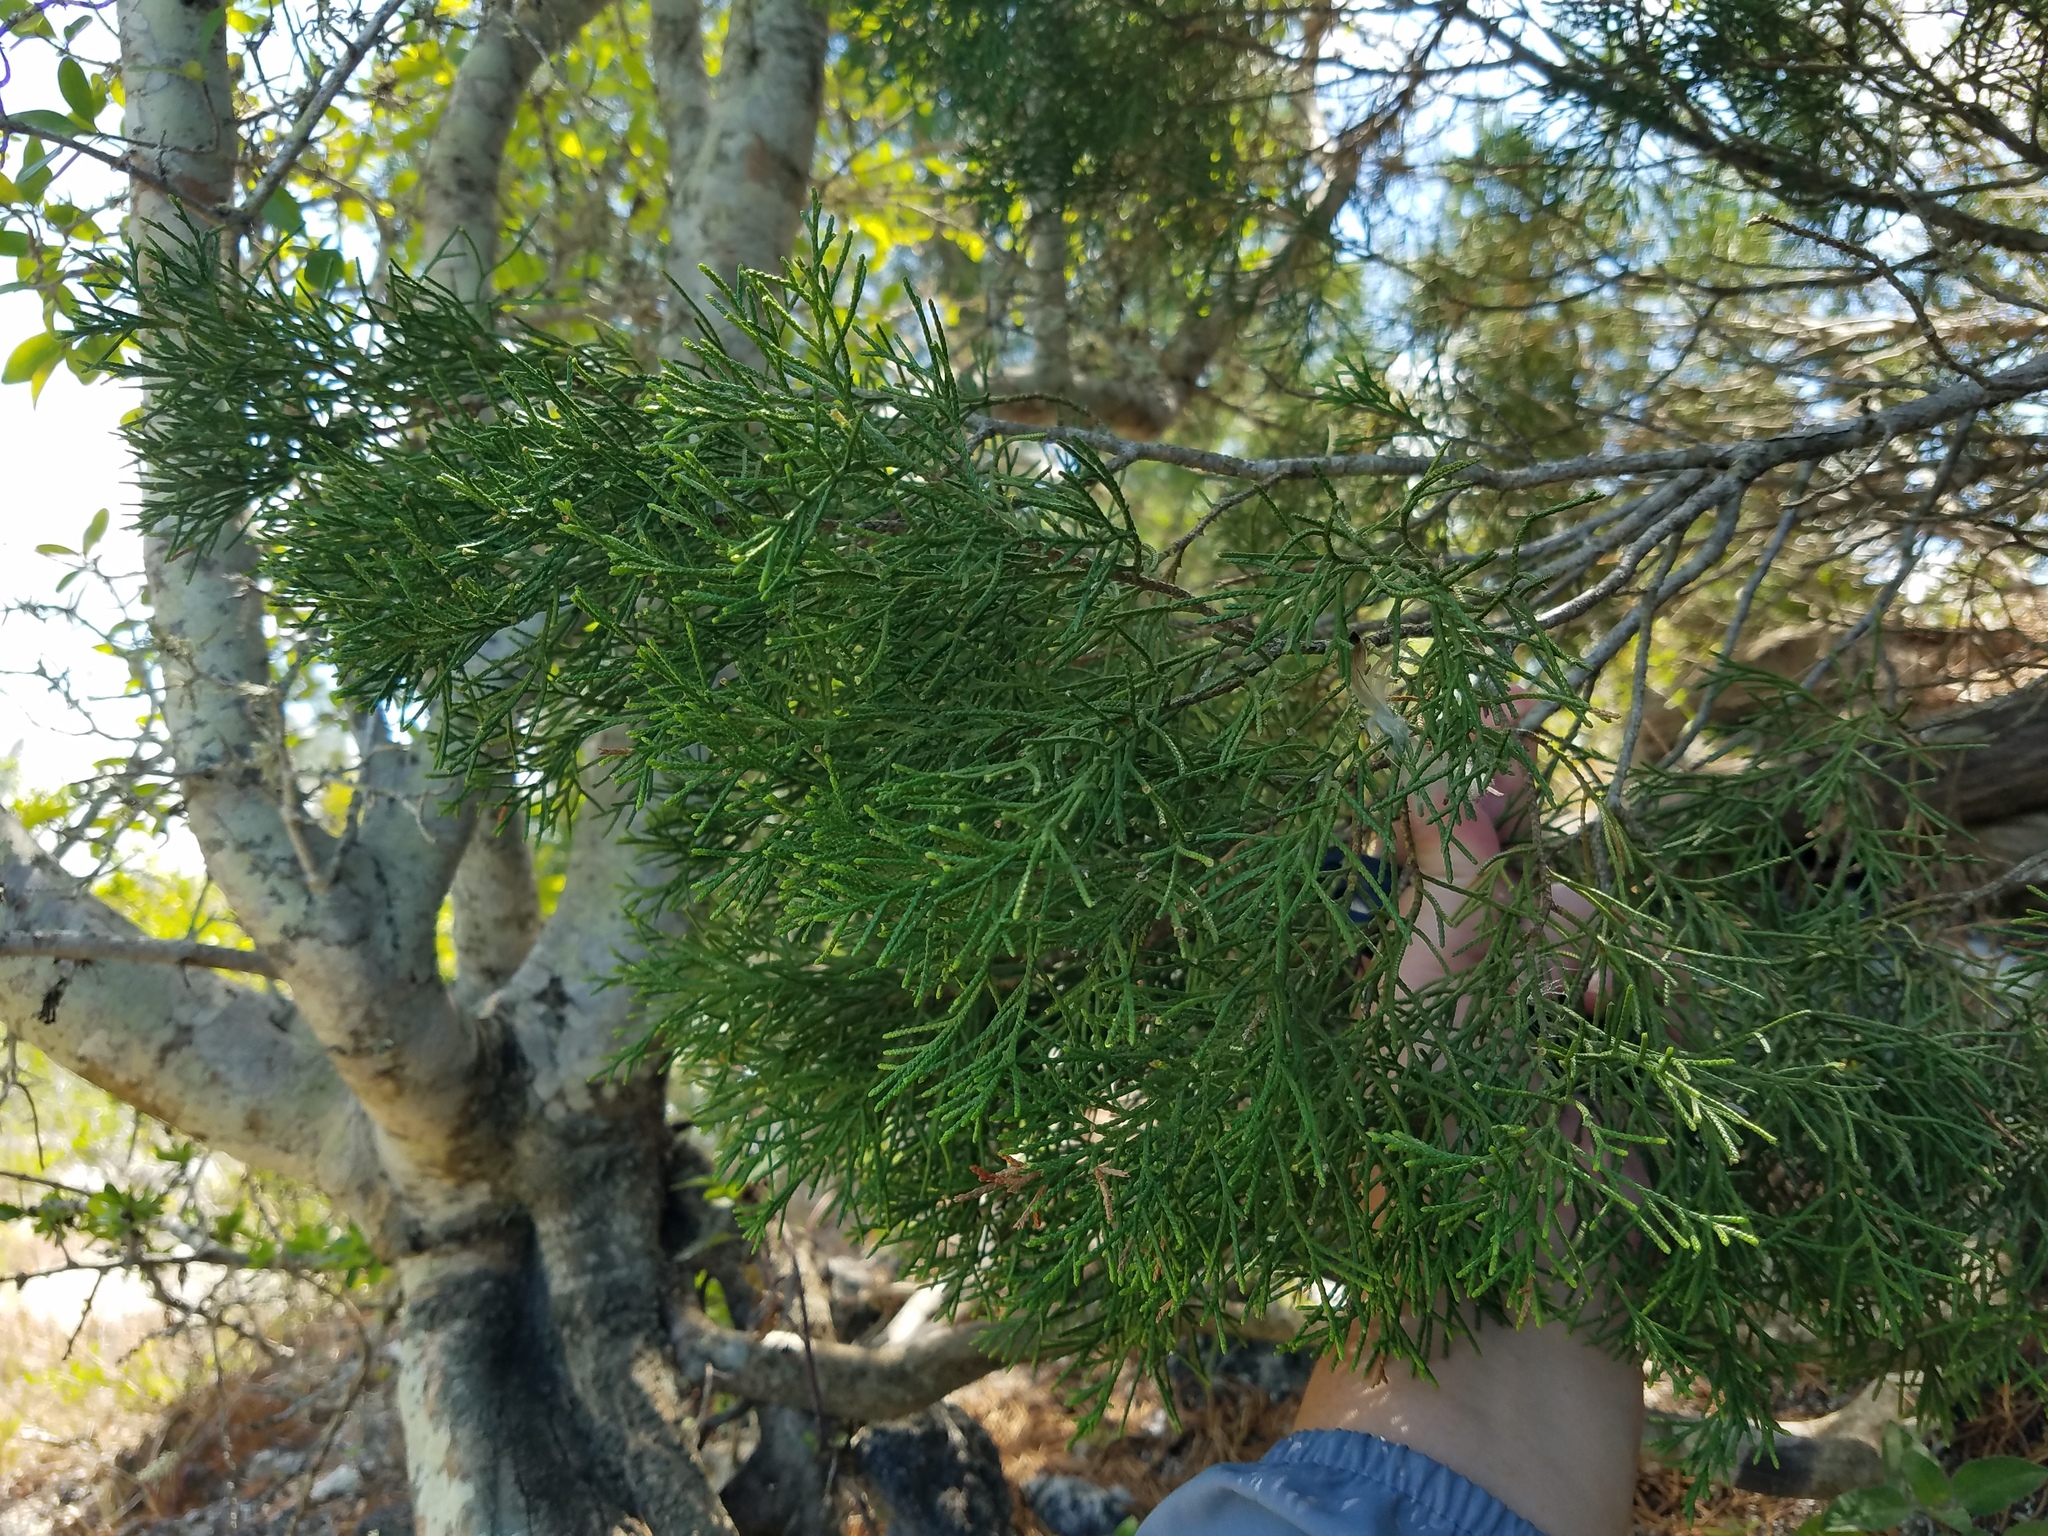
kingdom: Plantae
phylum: Tracheophyta
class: Pinopsida
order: Pinales
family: Cupressaceae
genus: Juniperus
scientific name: Juniperus virginiana
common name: Red juniper
